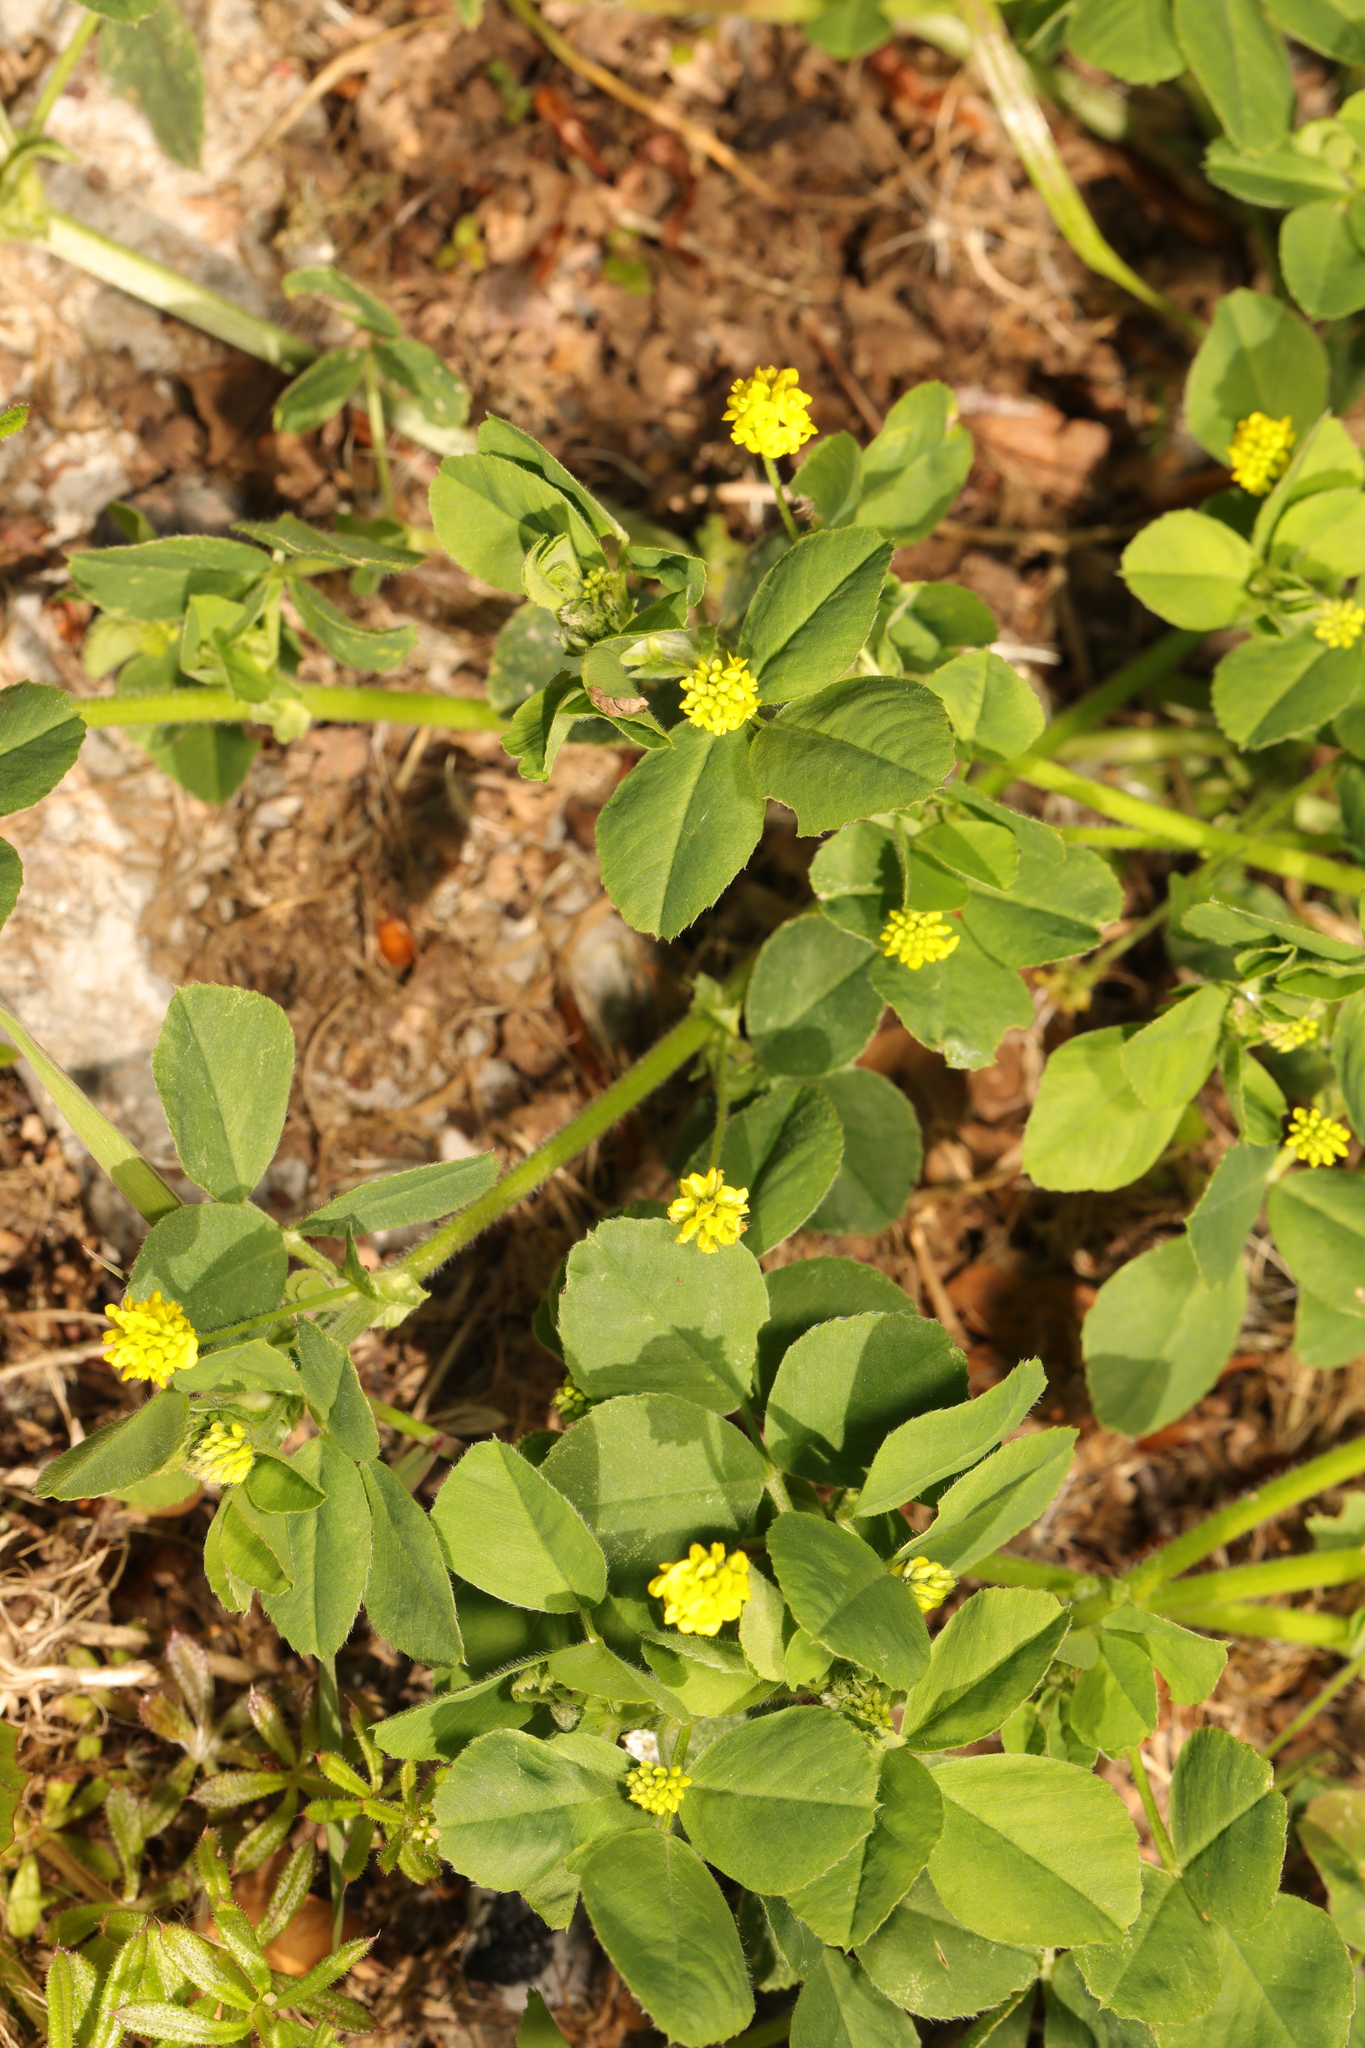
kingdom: Plantae
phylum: Tracheophyta
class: Magnoliopsida
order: Fabales
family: Fabaceae
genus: Medicago
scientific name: Medicago lupulina
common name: Black medick
